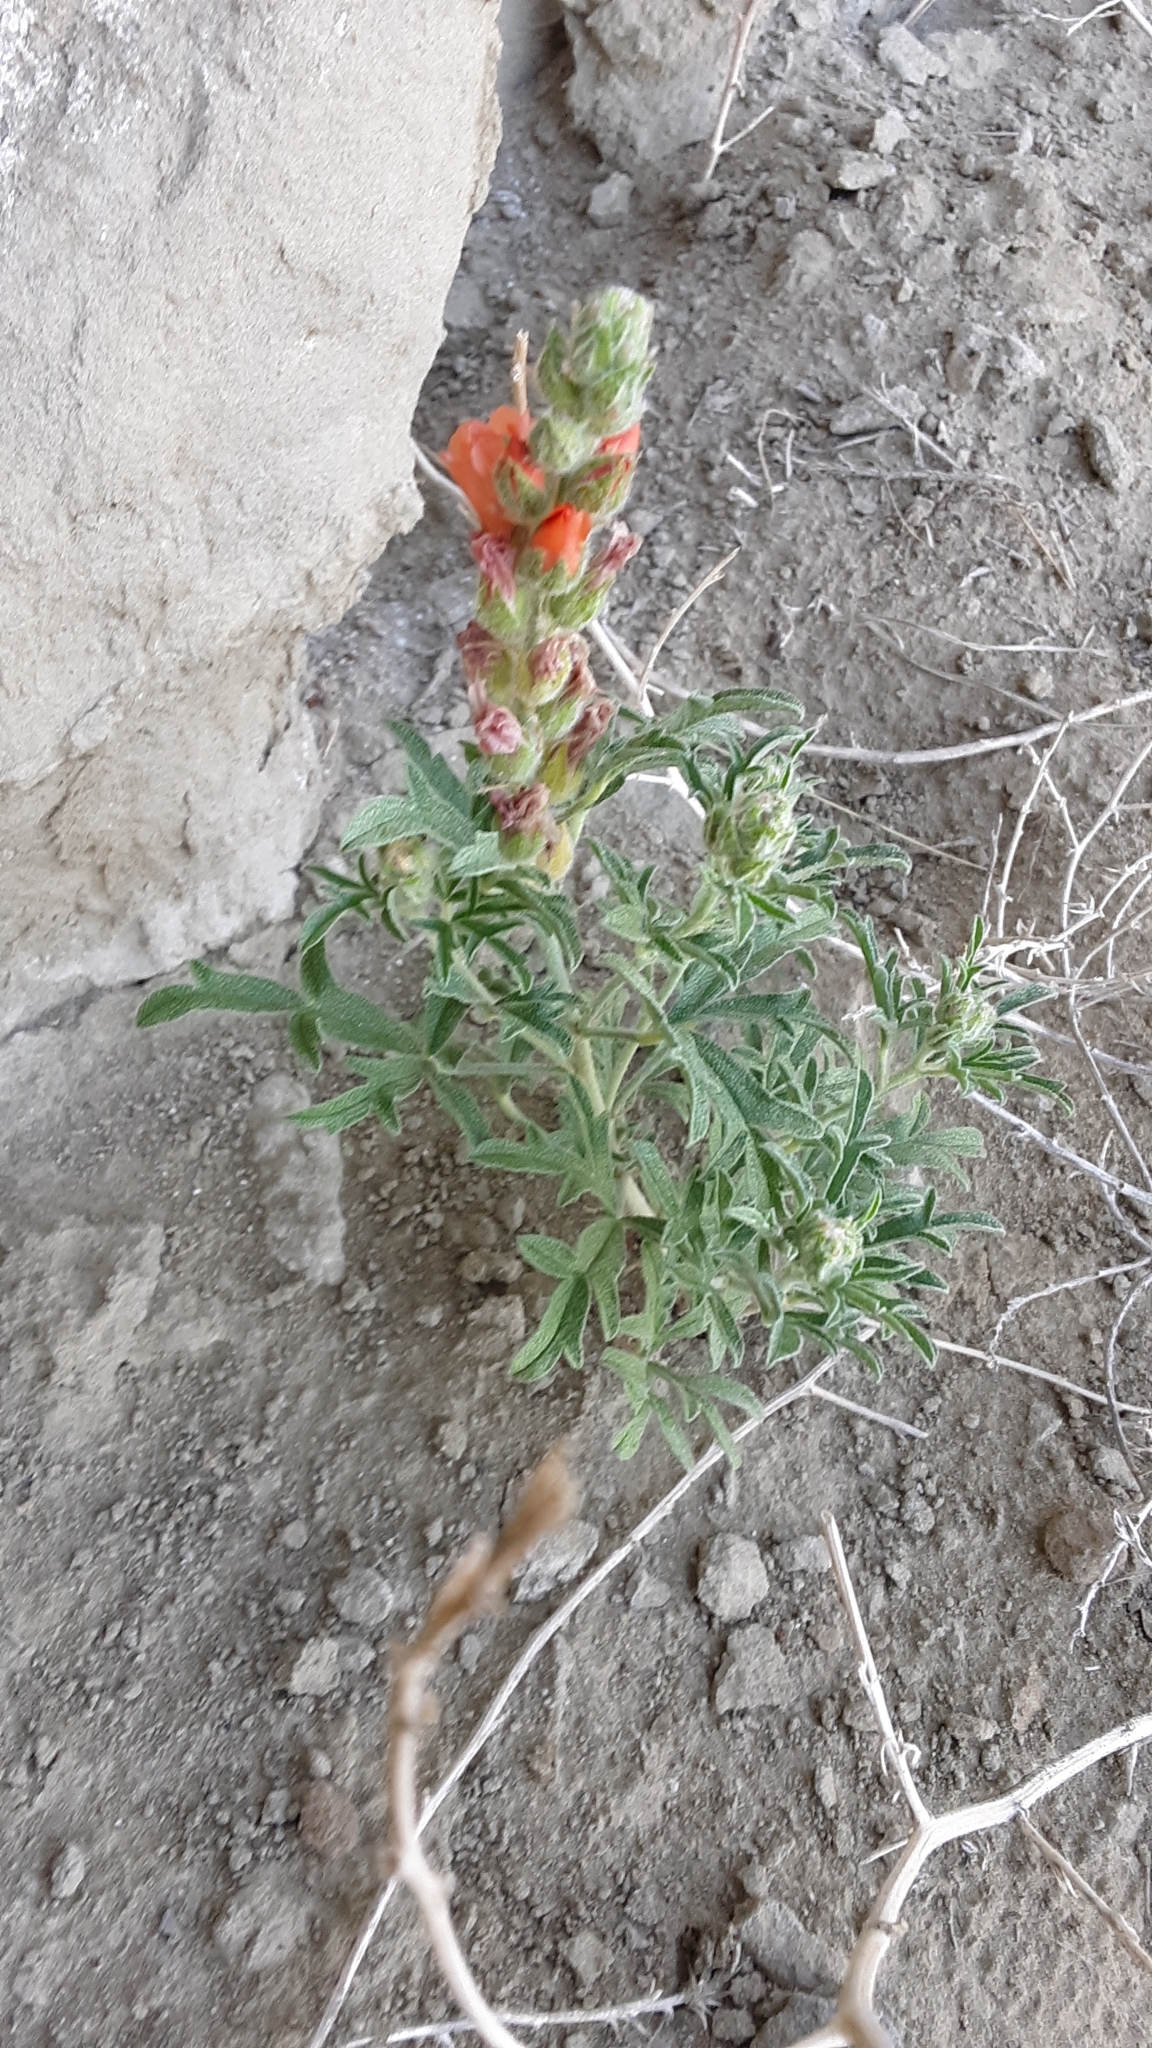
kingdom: Plantae
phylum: Tracheophyta
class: Magnoliopsida
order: Malvales
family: Malvaceae
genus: Sphaeralcea
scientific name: Sphaeralcea coccinea
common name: Moss-rose
